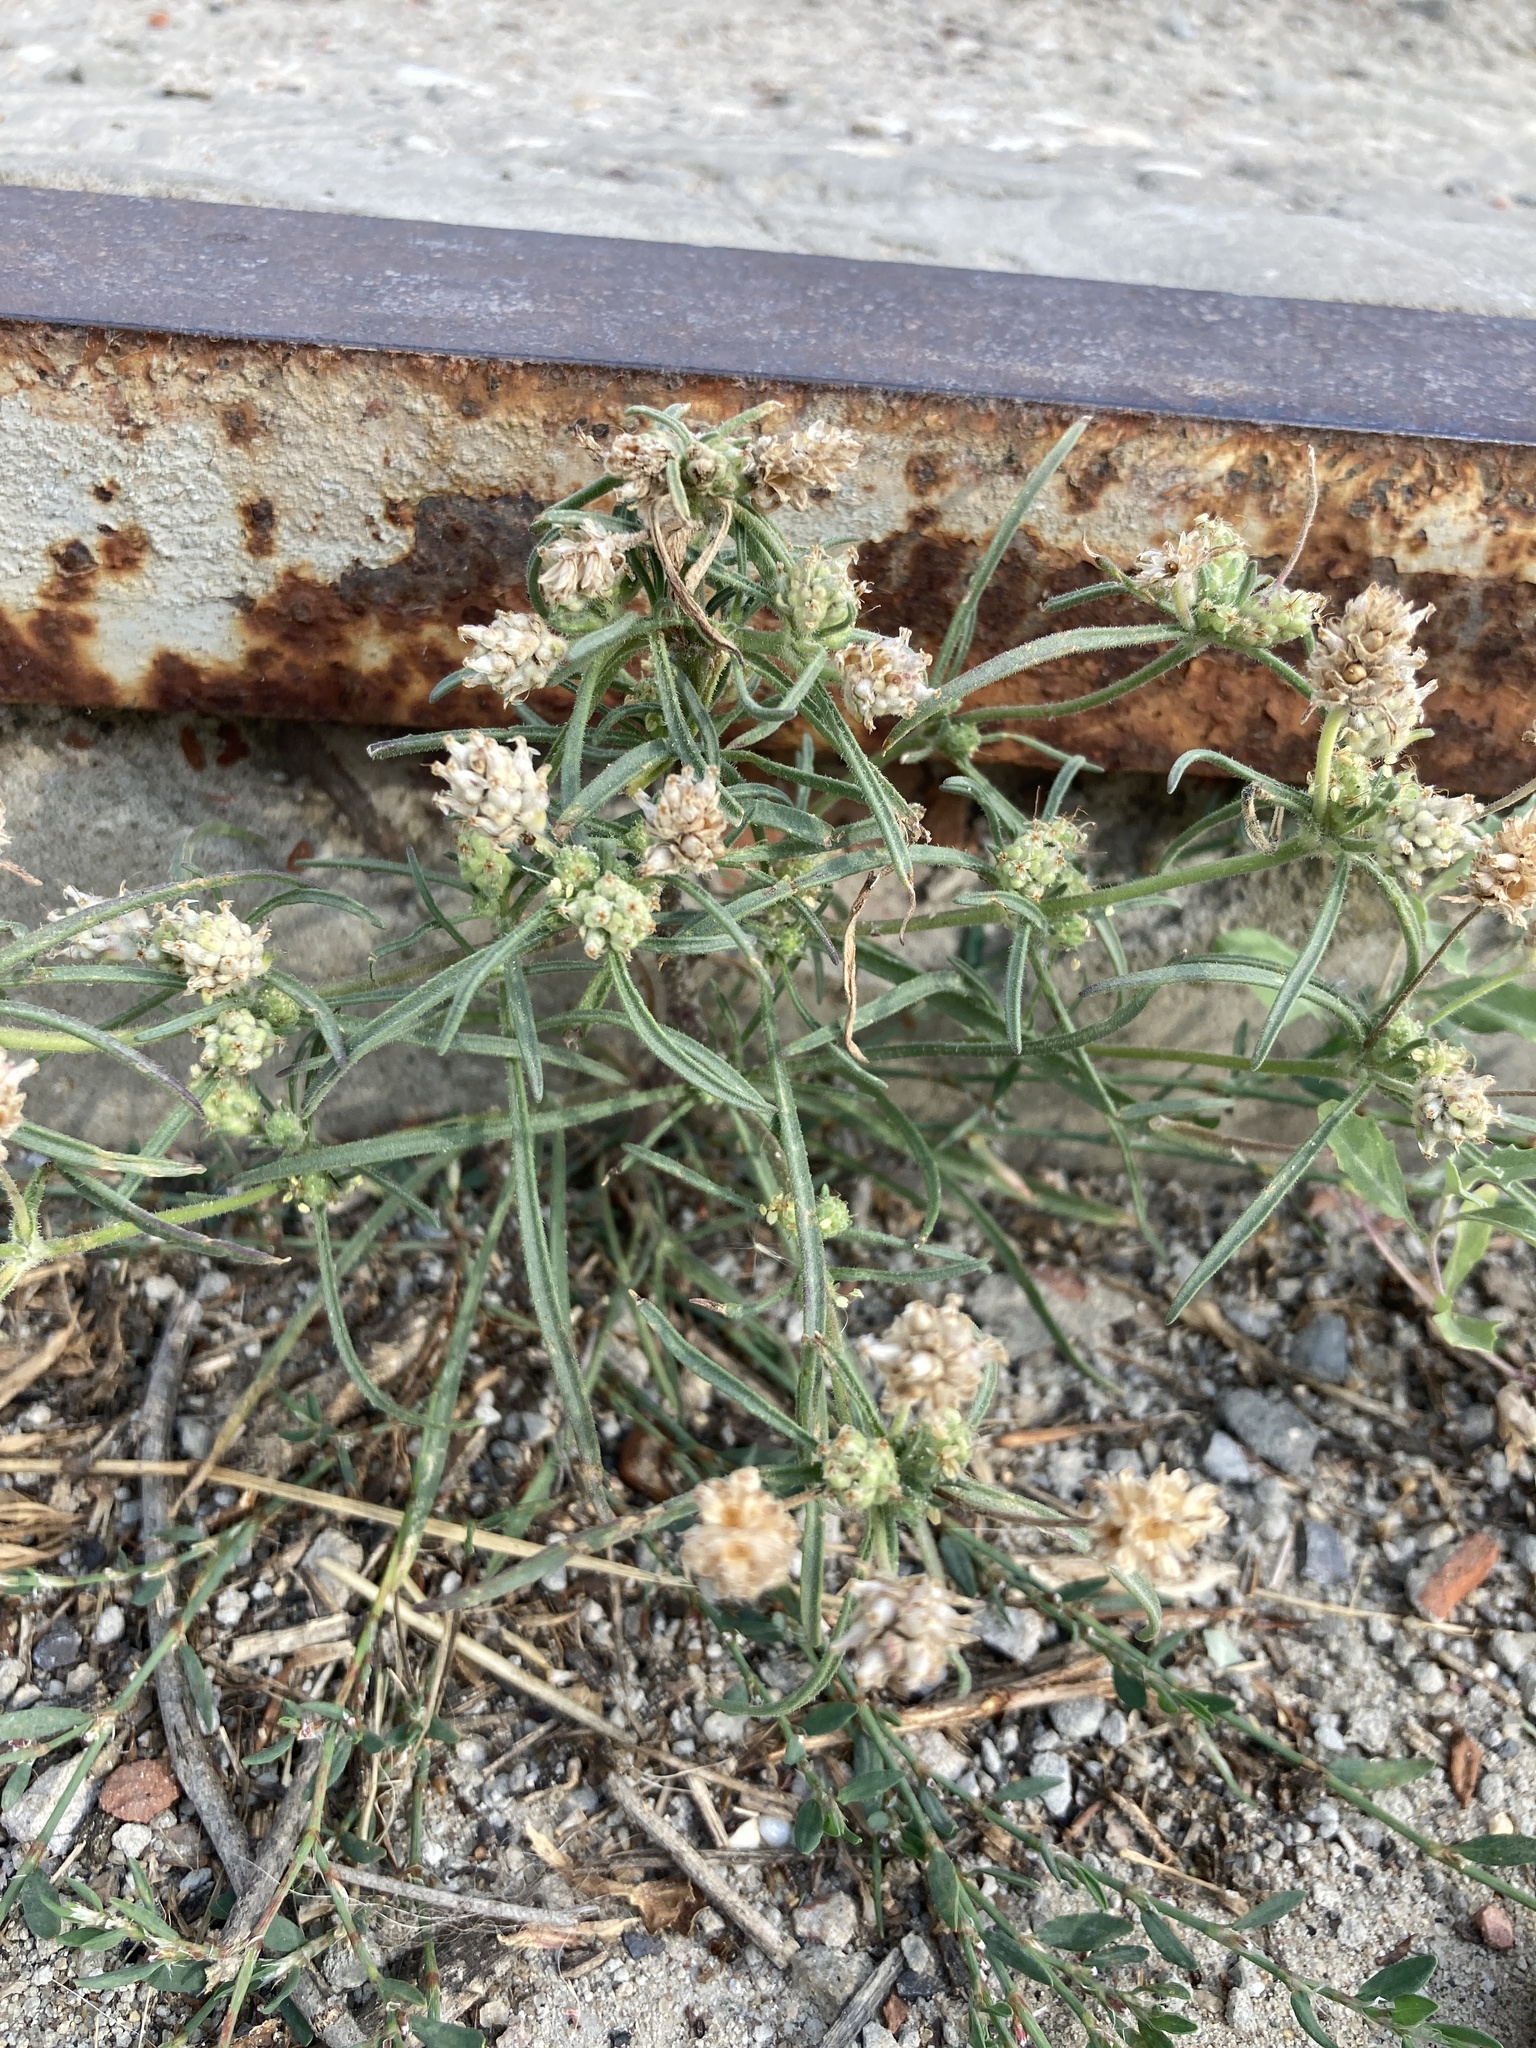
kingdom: Plantae
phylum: Tracheophyta
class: Magnoliopsida
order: Lamiales
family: Plantaginaceae
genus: Plantago
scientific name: Plantago arenaria
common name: Branched plantain
